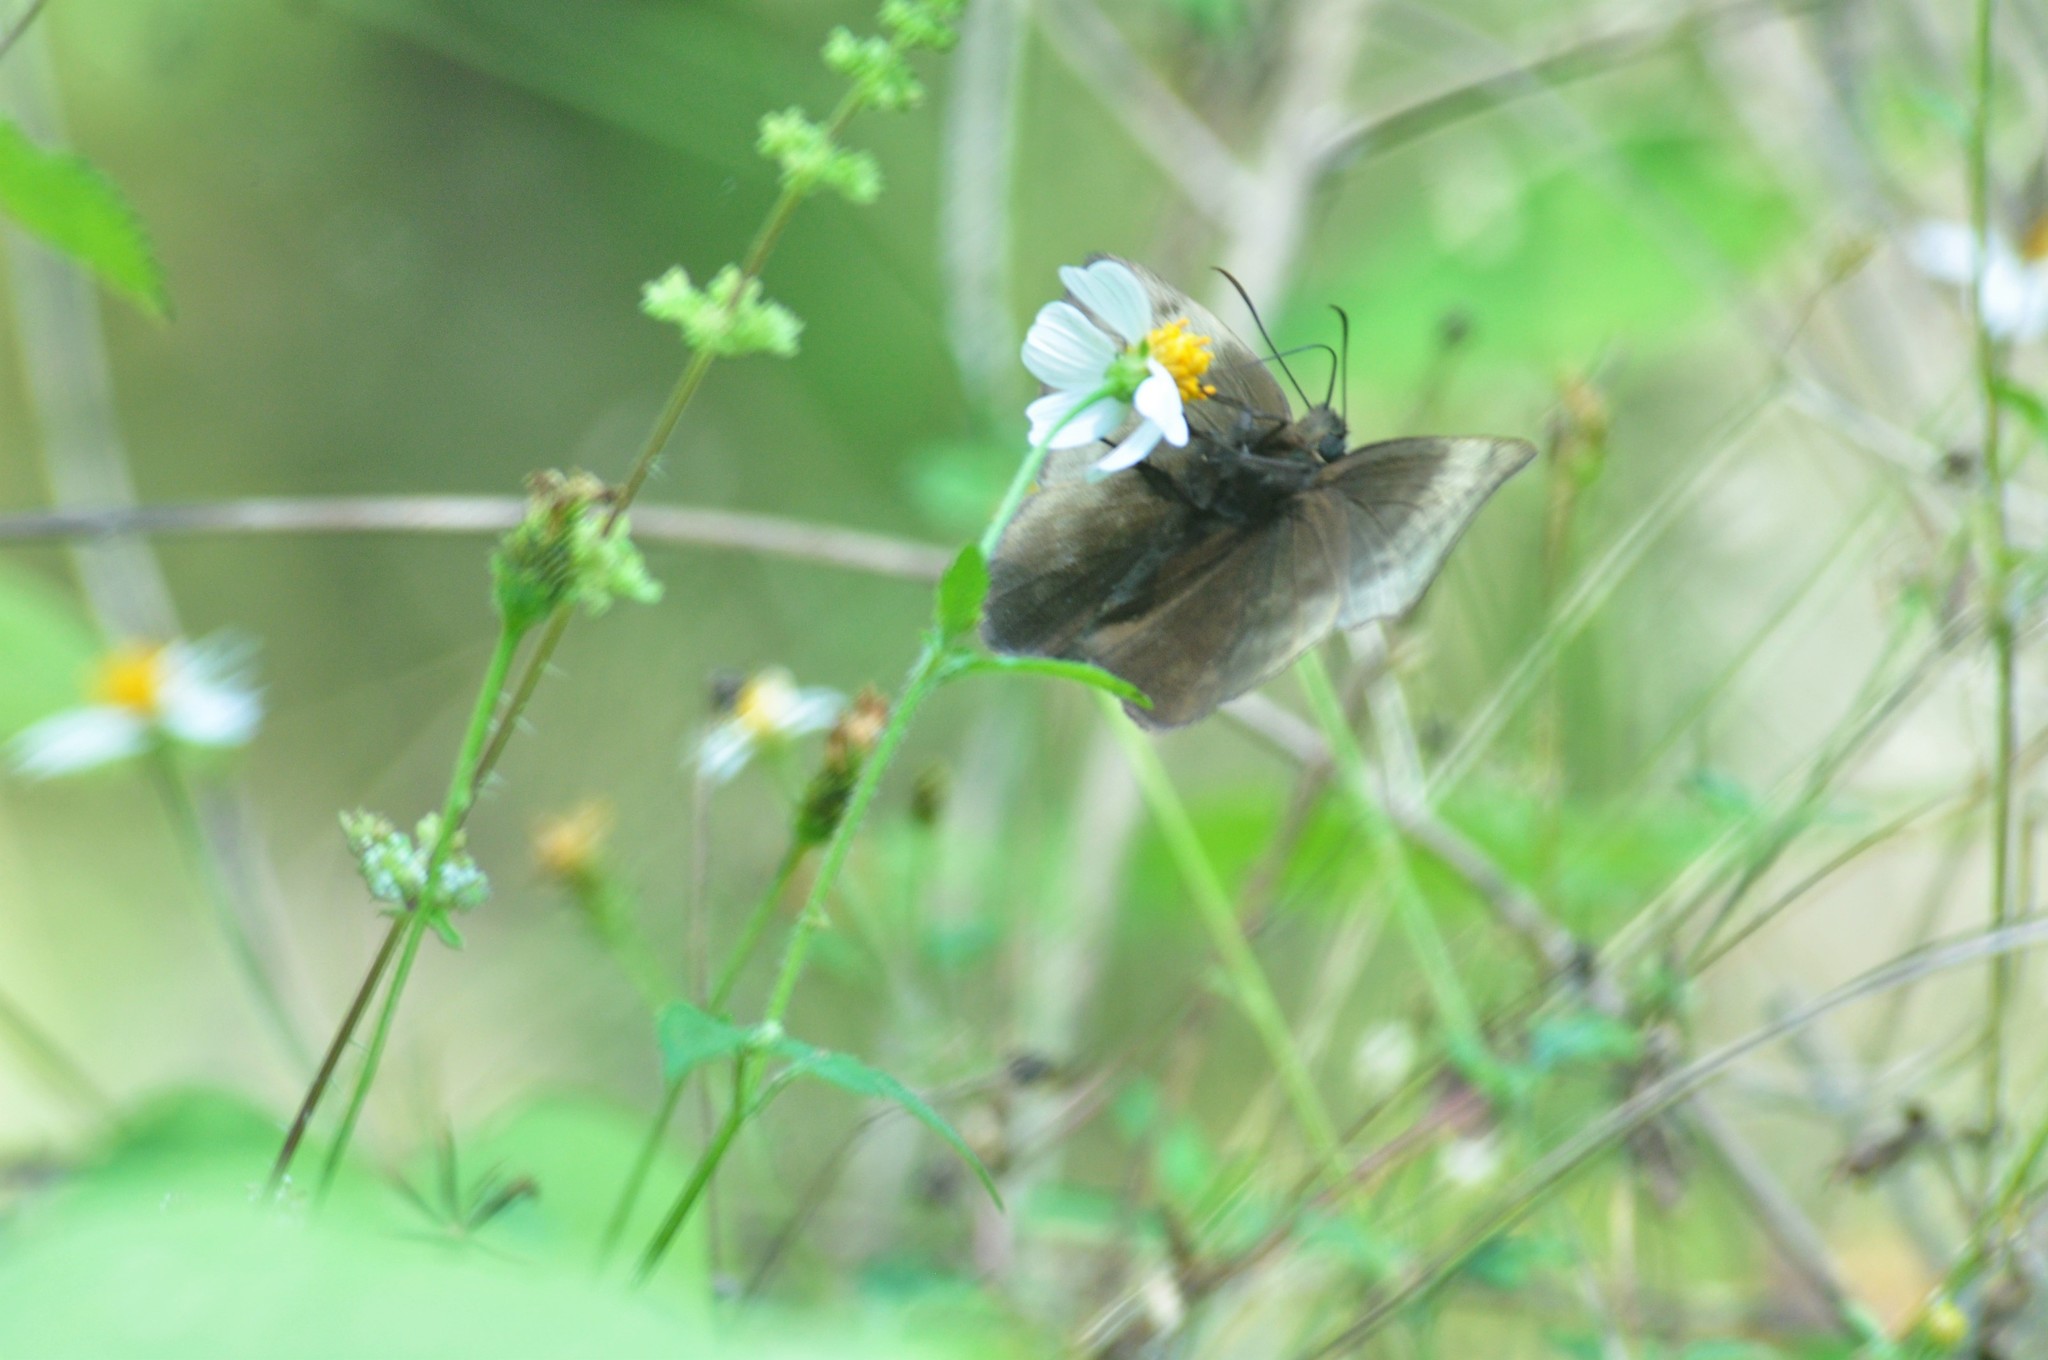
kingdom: Animalia
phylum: Arthropoda
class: Insecta
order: Lepidoptera
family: Hesperiidae
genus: Achlyodes
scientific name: Achlyodes pallida
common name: Pale sicklewing
